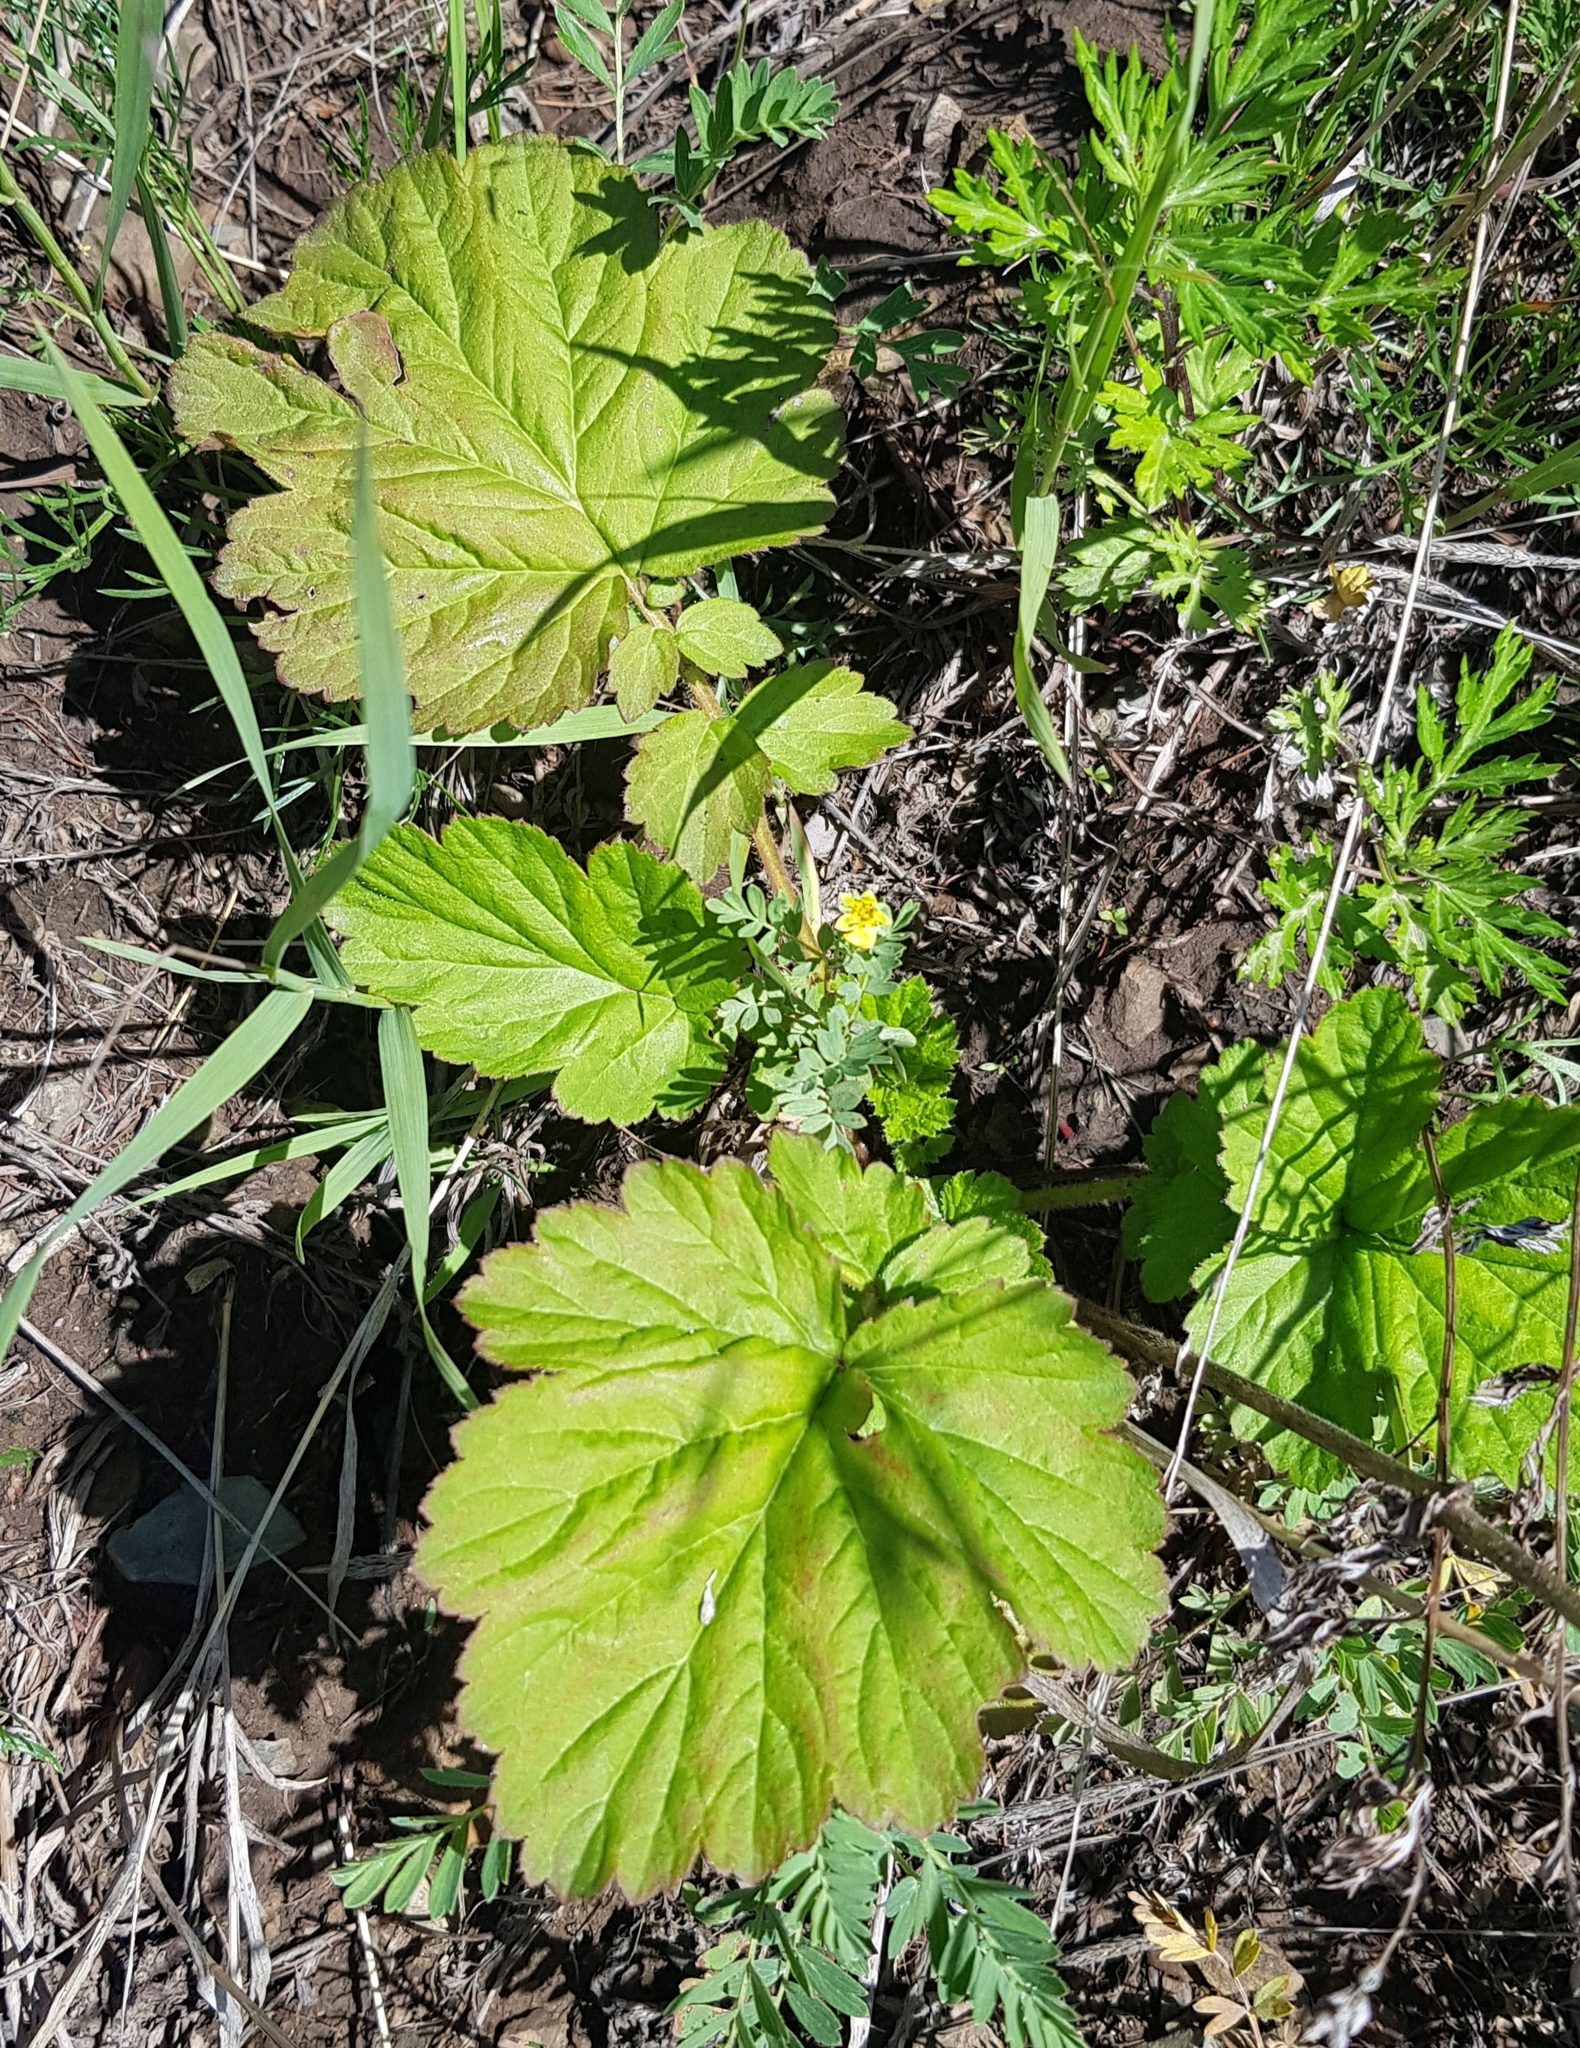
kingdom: Plantae
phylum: Tracheophyta
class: Magnoliopsida
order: Rosales
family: Rosaceae
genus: Geum
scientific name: Geum aleppicum
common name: Yellow avens
